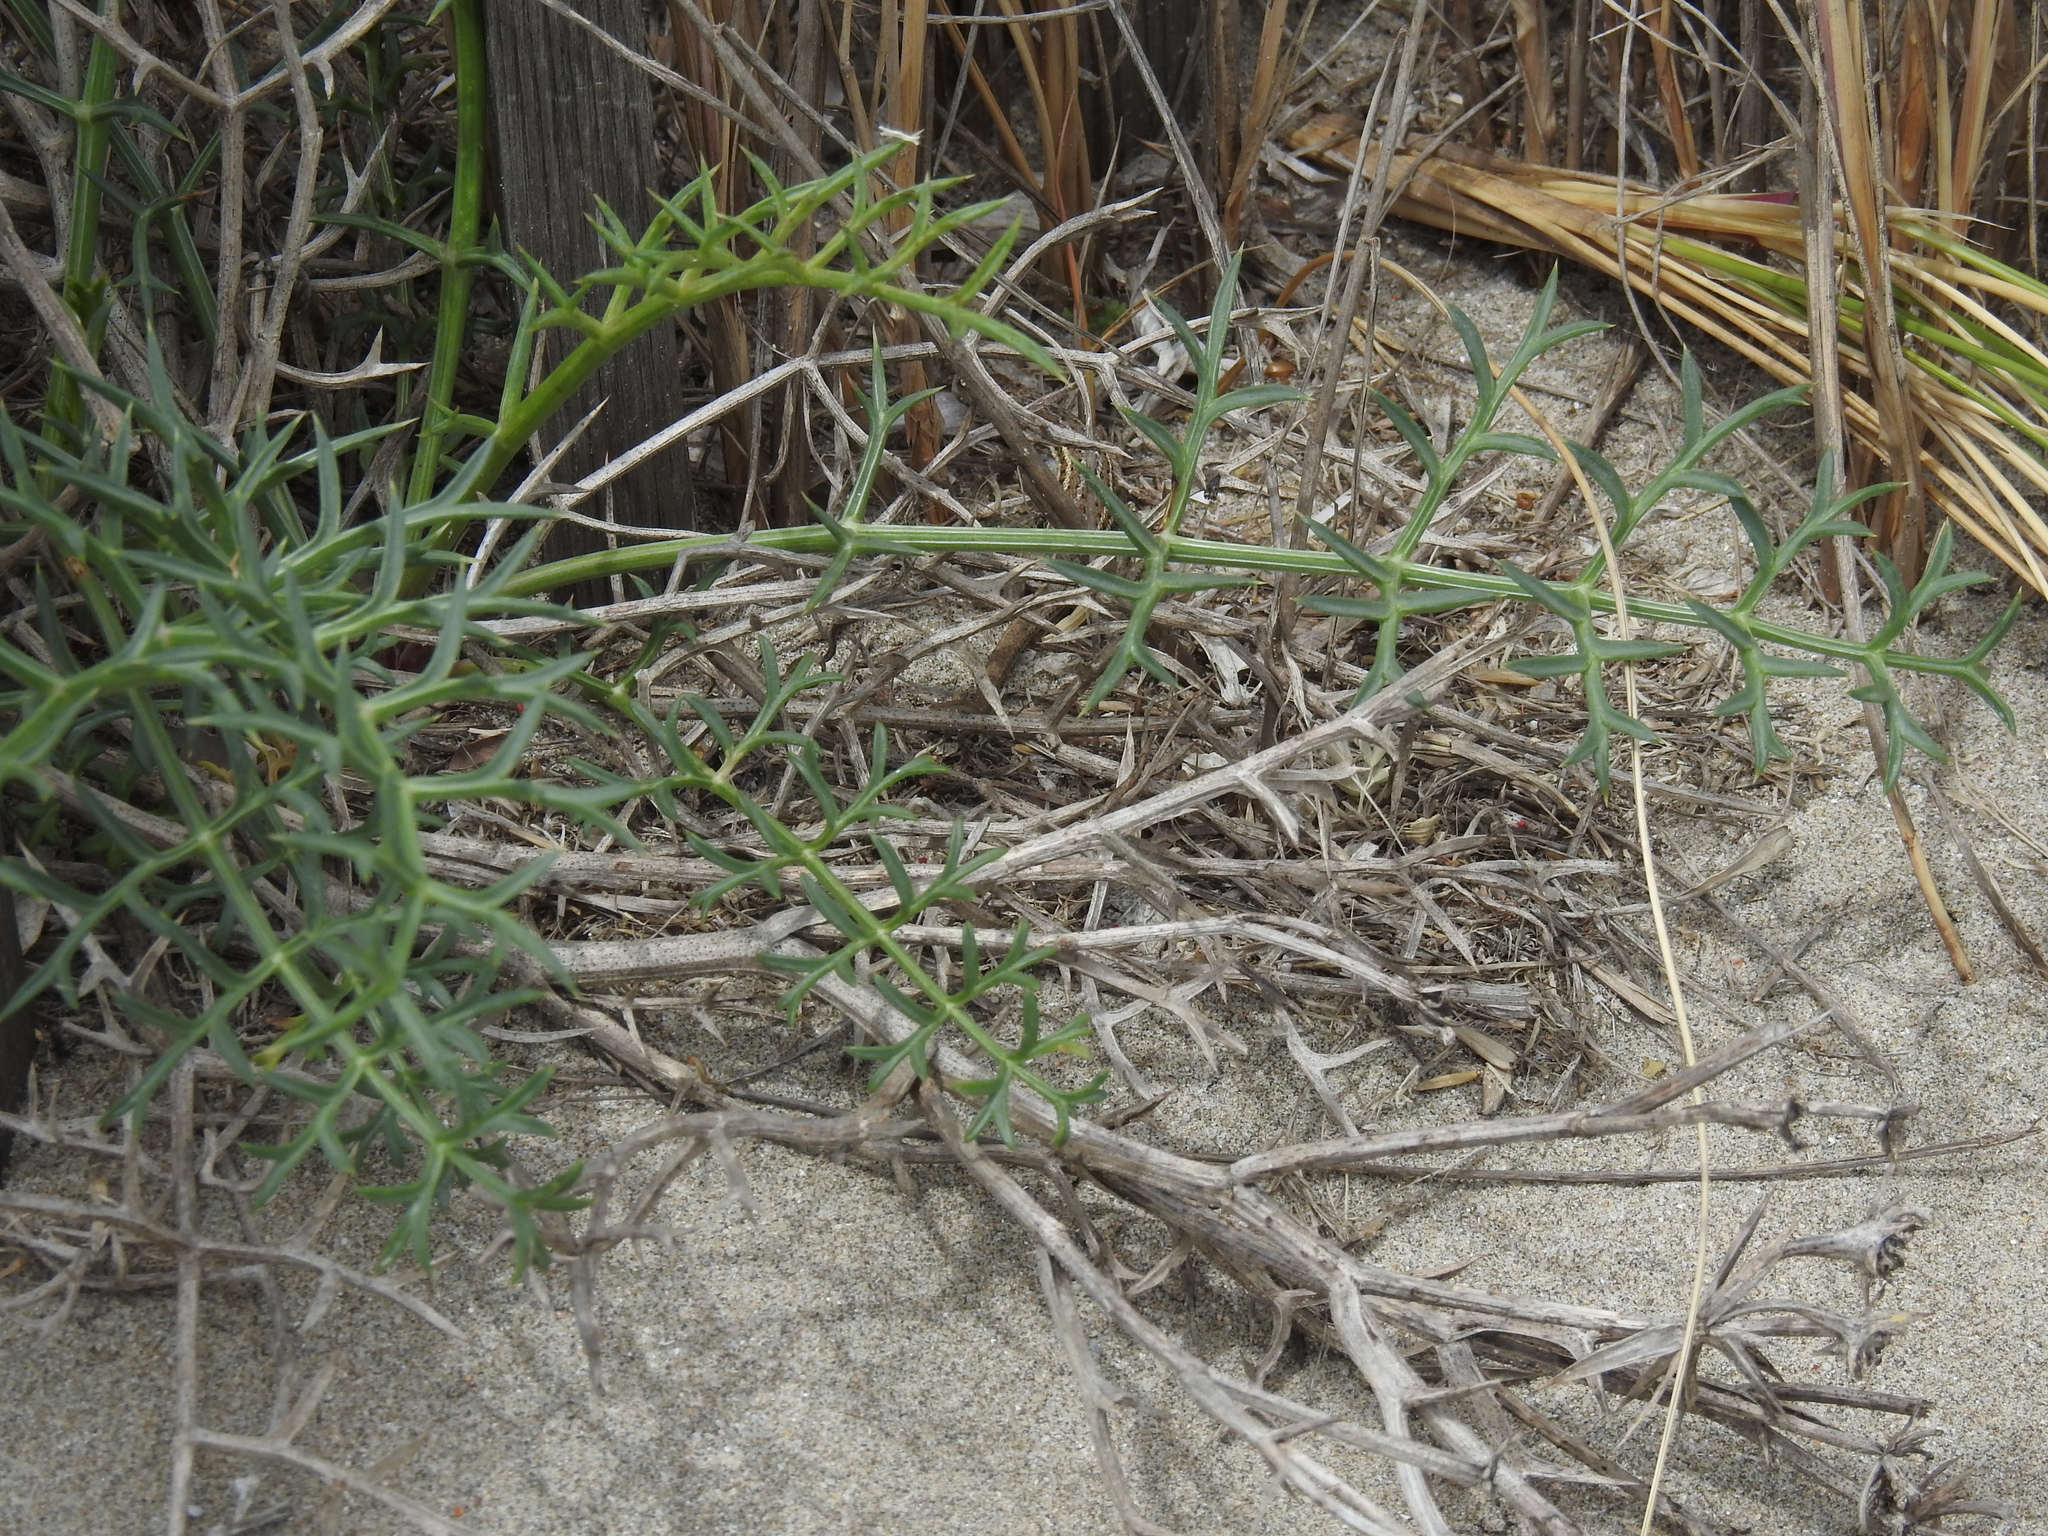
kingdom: Plantae
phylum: Tracheophyta
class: Magnoliopsida
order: Apiales
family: Apiaceae
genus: Echinophora
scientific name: Echinophora spinosa
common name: Prickly samphire
